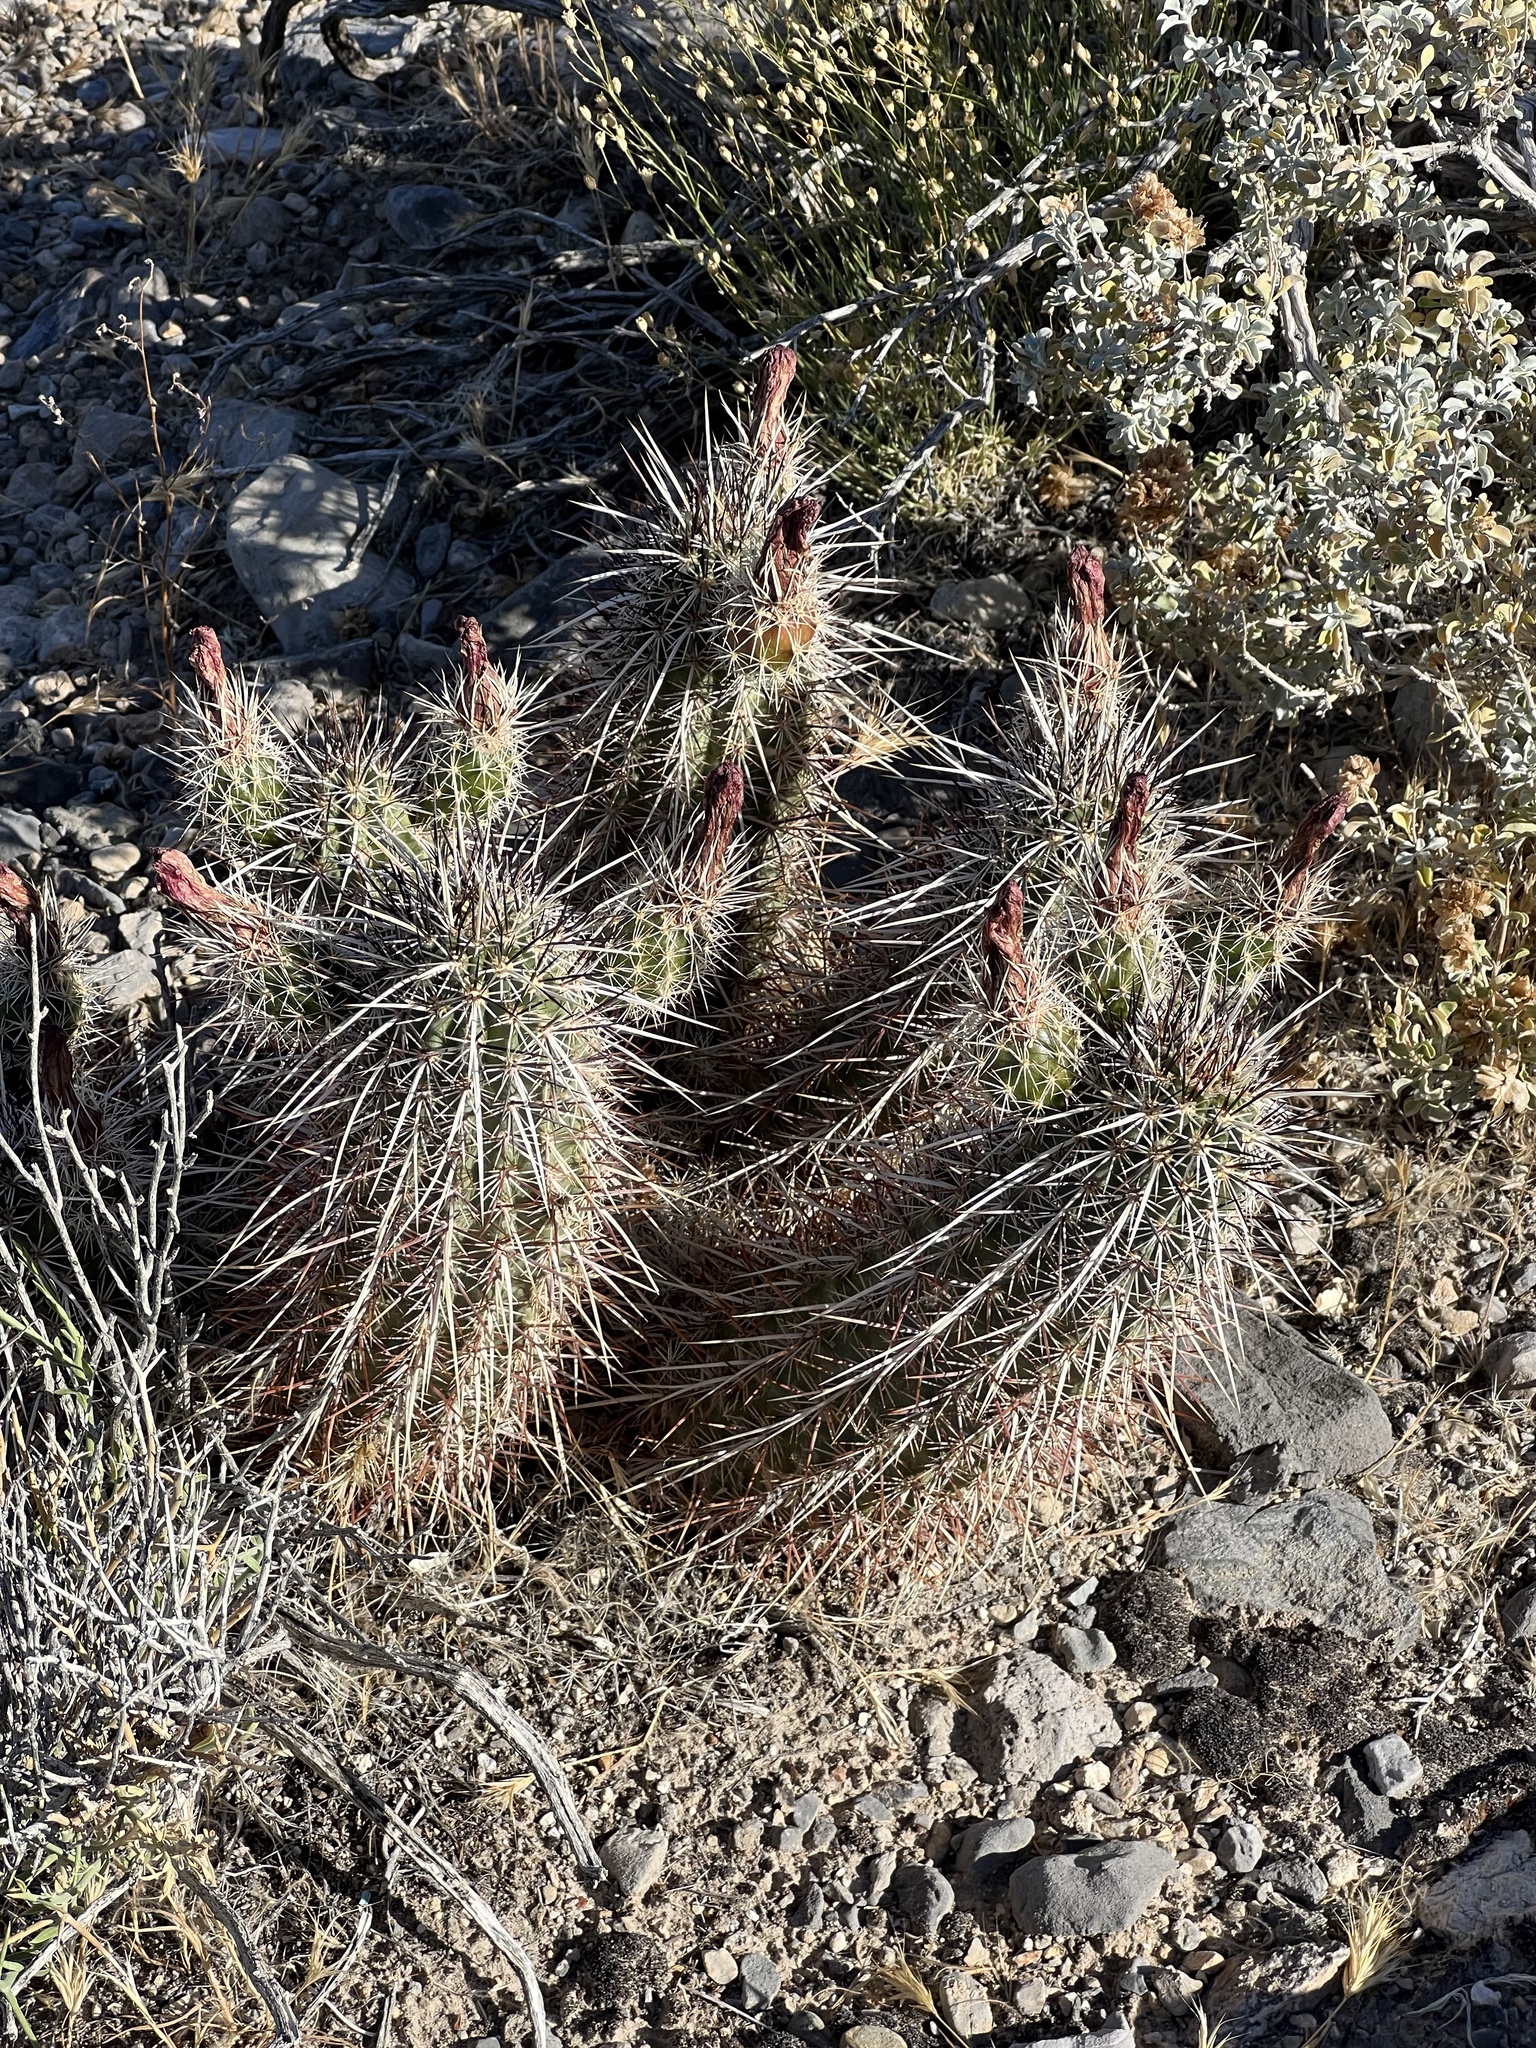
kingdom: Plantae
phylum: Tracheophyta
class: Magnoliopsida
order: Caryophyllales
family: Cactaceae
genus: Echinocereus
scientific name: Echinocereus engelmannii
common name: Engelmann's hedgehog cactus
